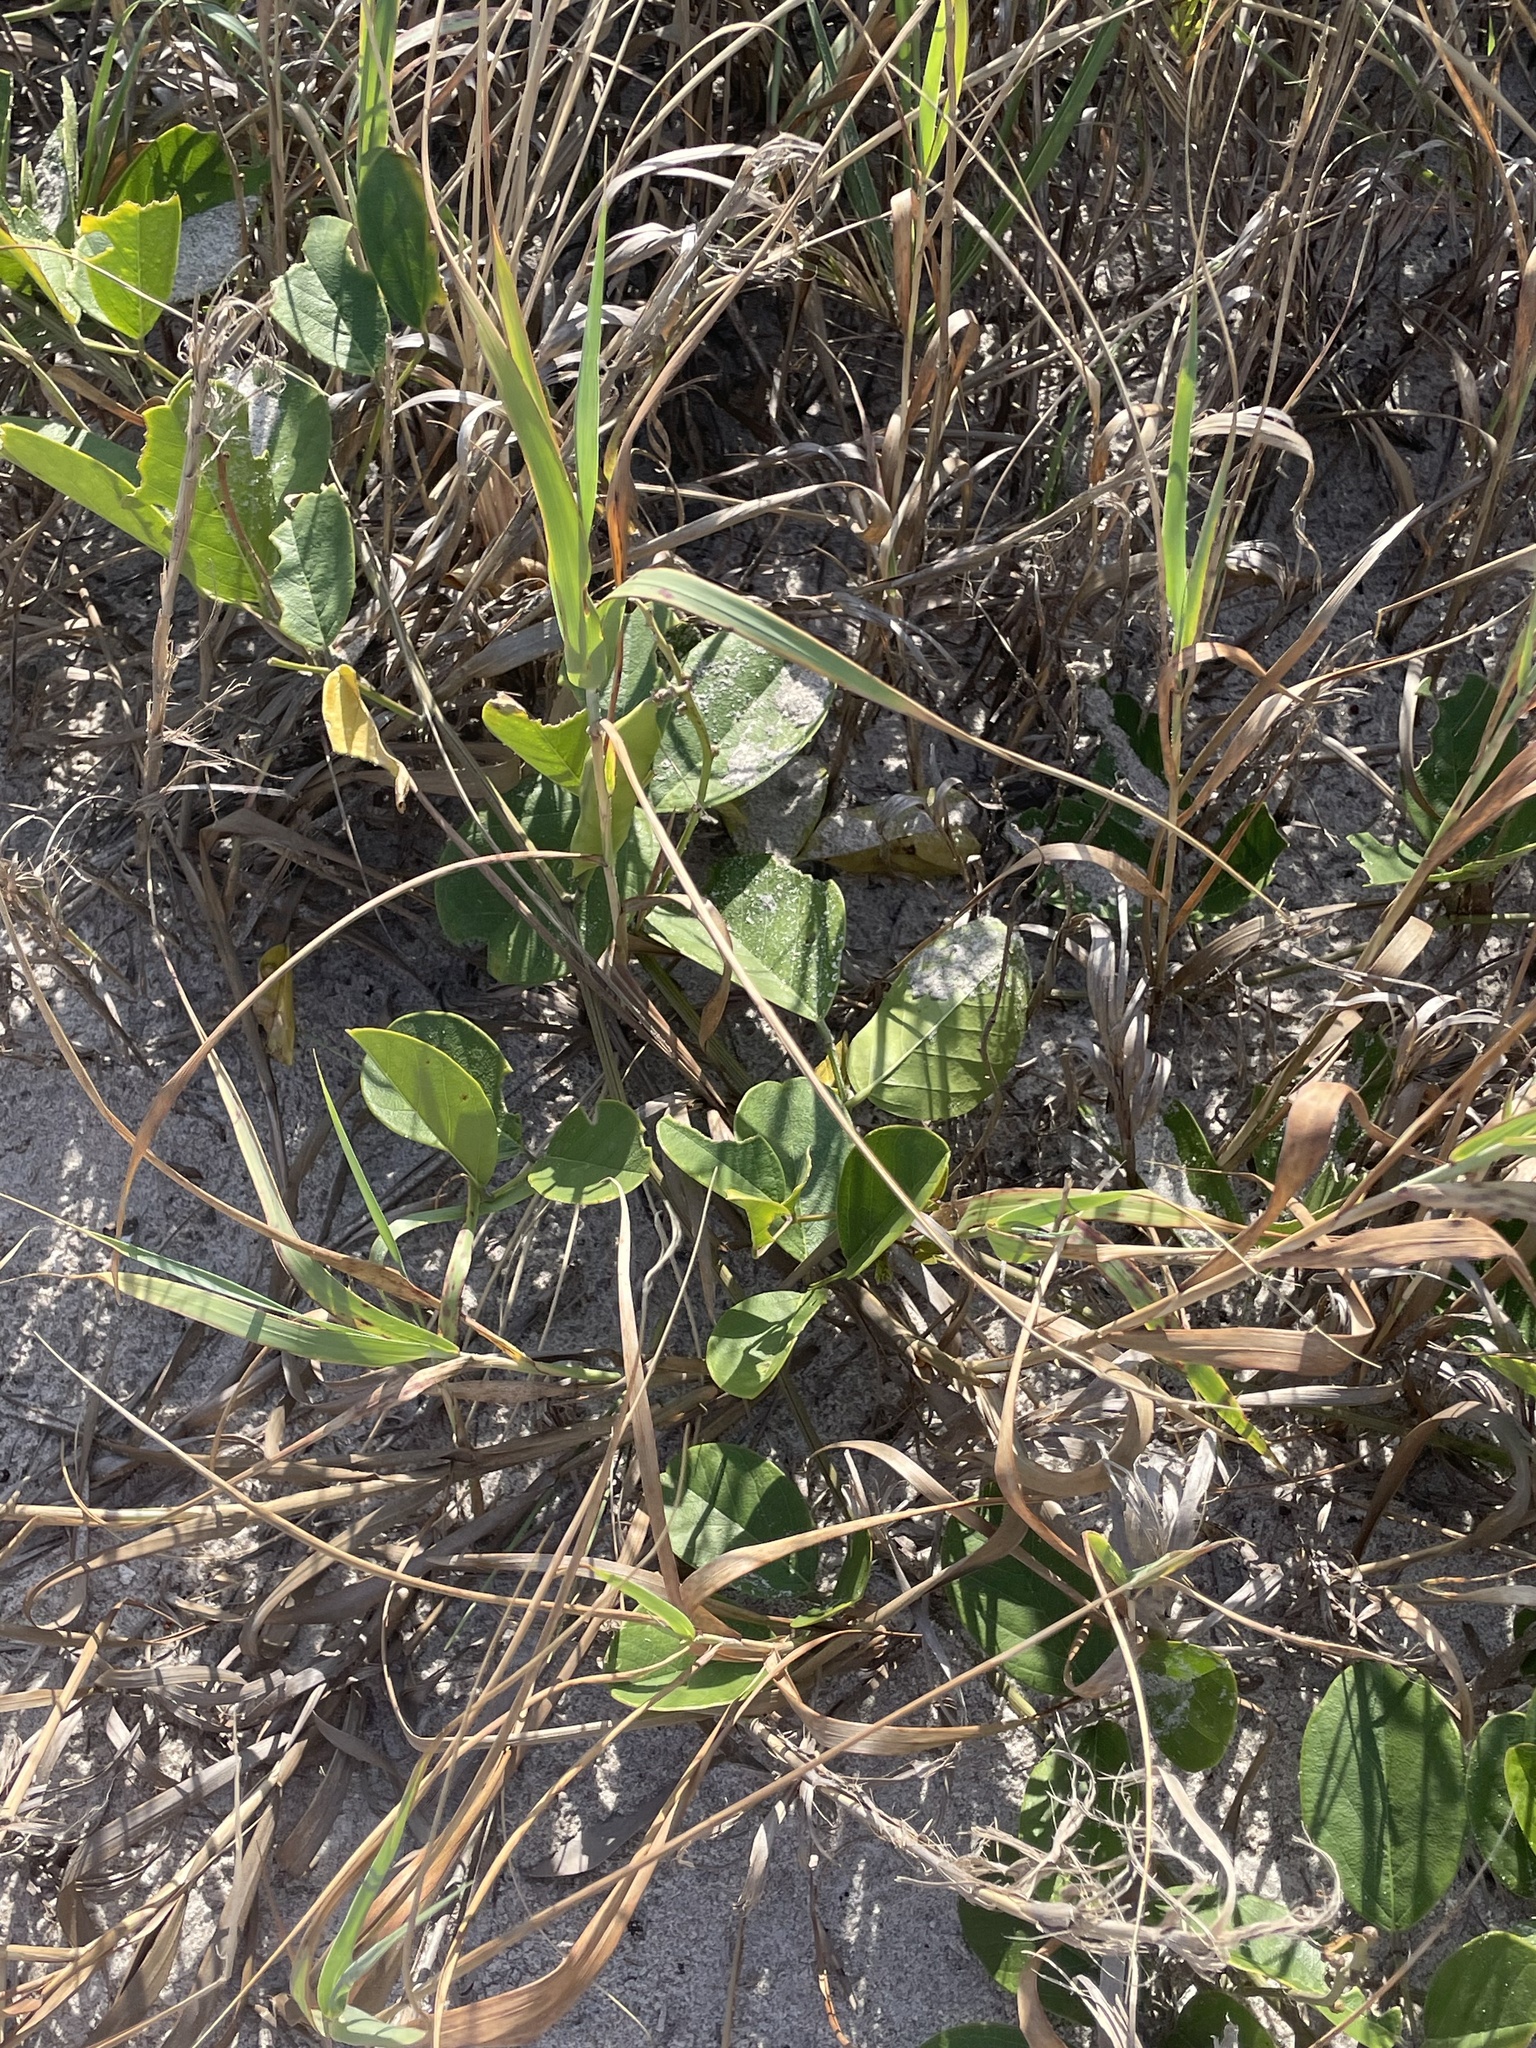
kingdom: Plantae
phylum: Tracheophyta
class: Magnoliopsida
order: Fabales
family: Fabaceae
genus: Canavalia
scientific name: Canavalia rosea
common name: Beach-bean
